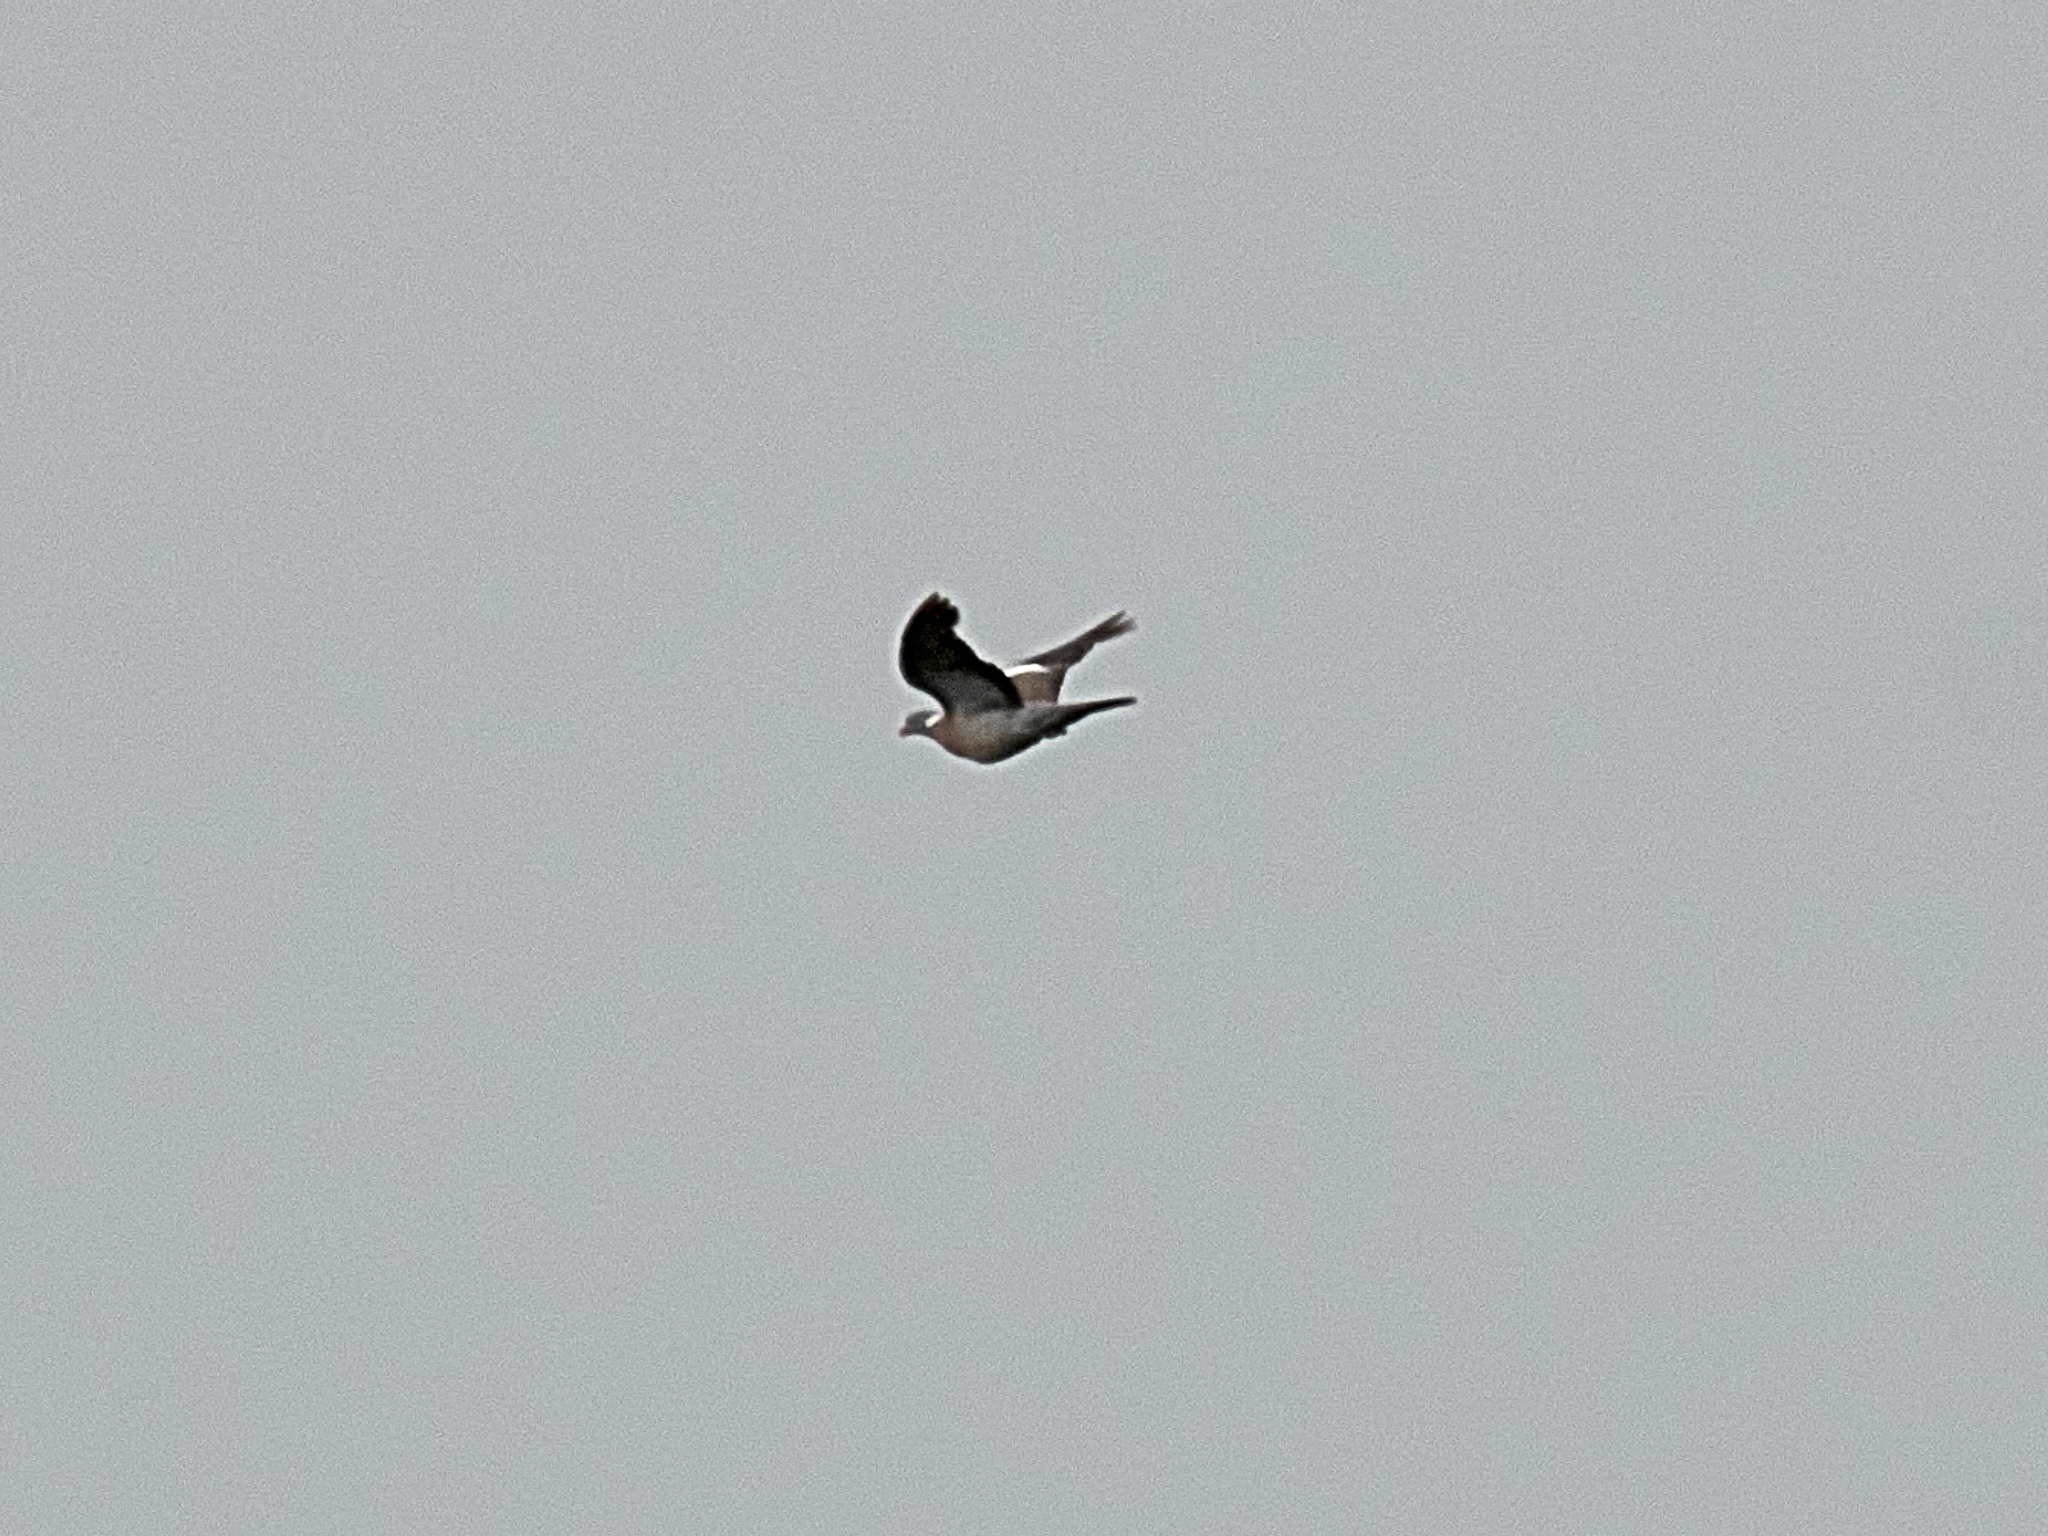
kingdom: Animalia
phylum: Chordata
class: Aves
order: Columbiformes
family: Columbidae
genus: Columba
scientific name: Columba palumbus
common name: Common wood pigeon
